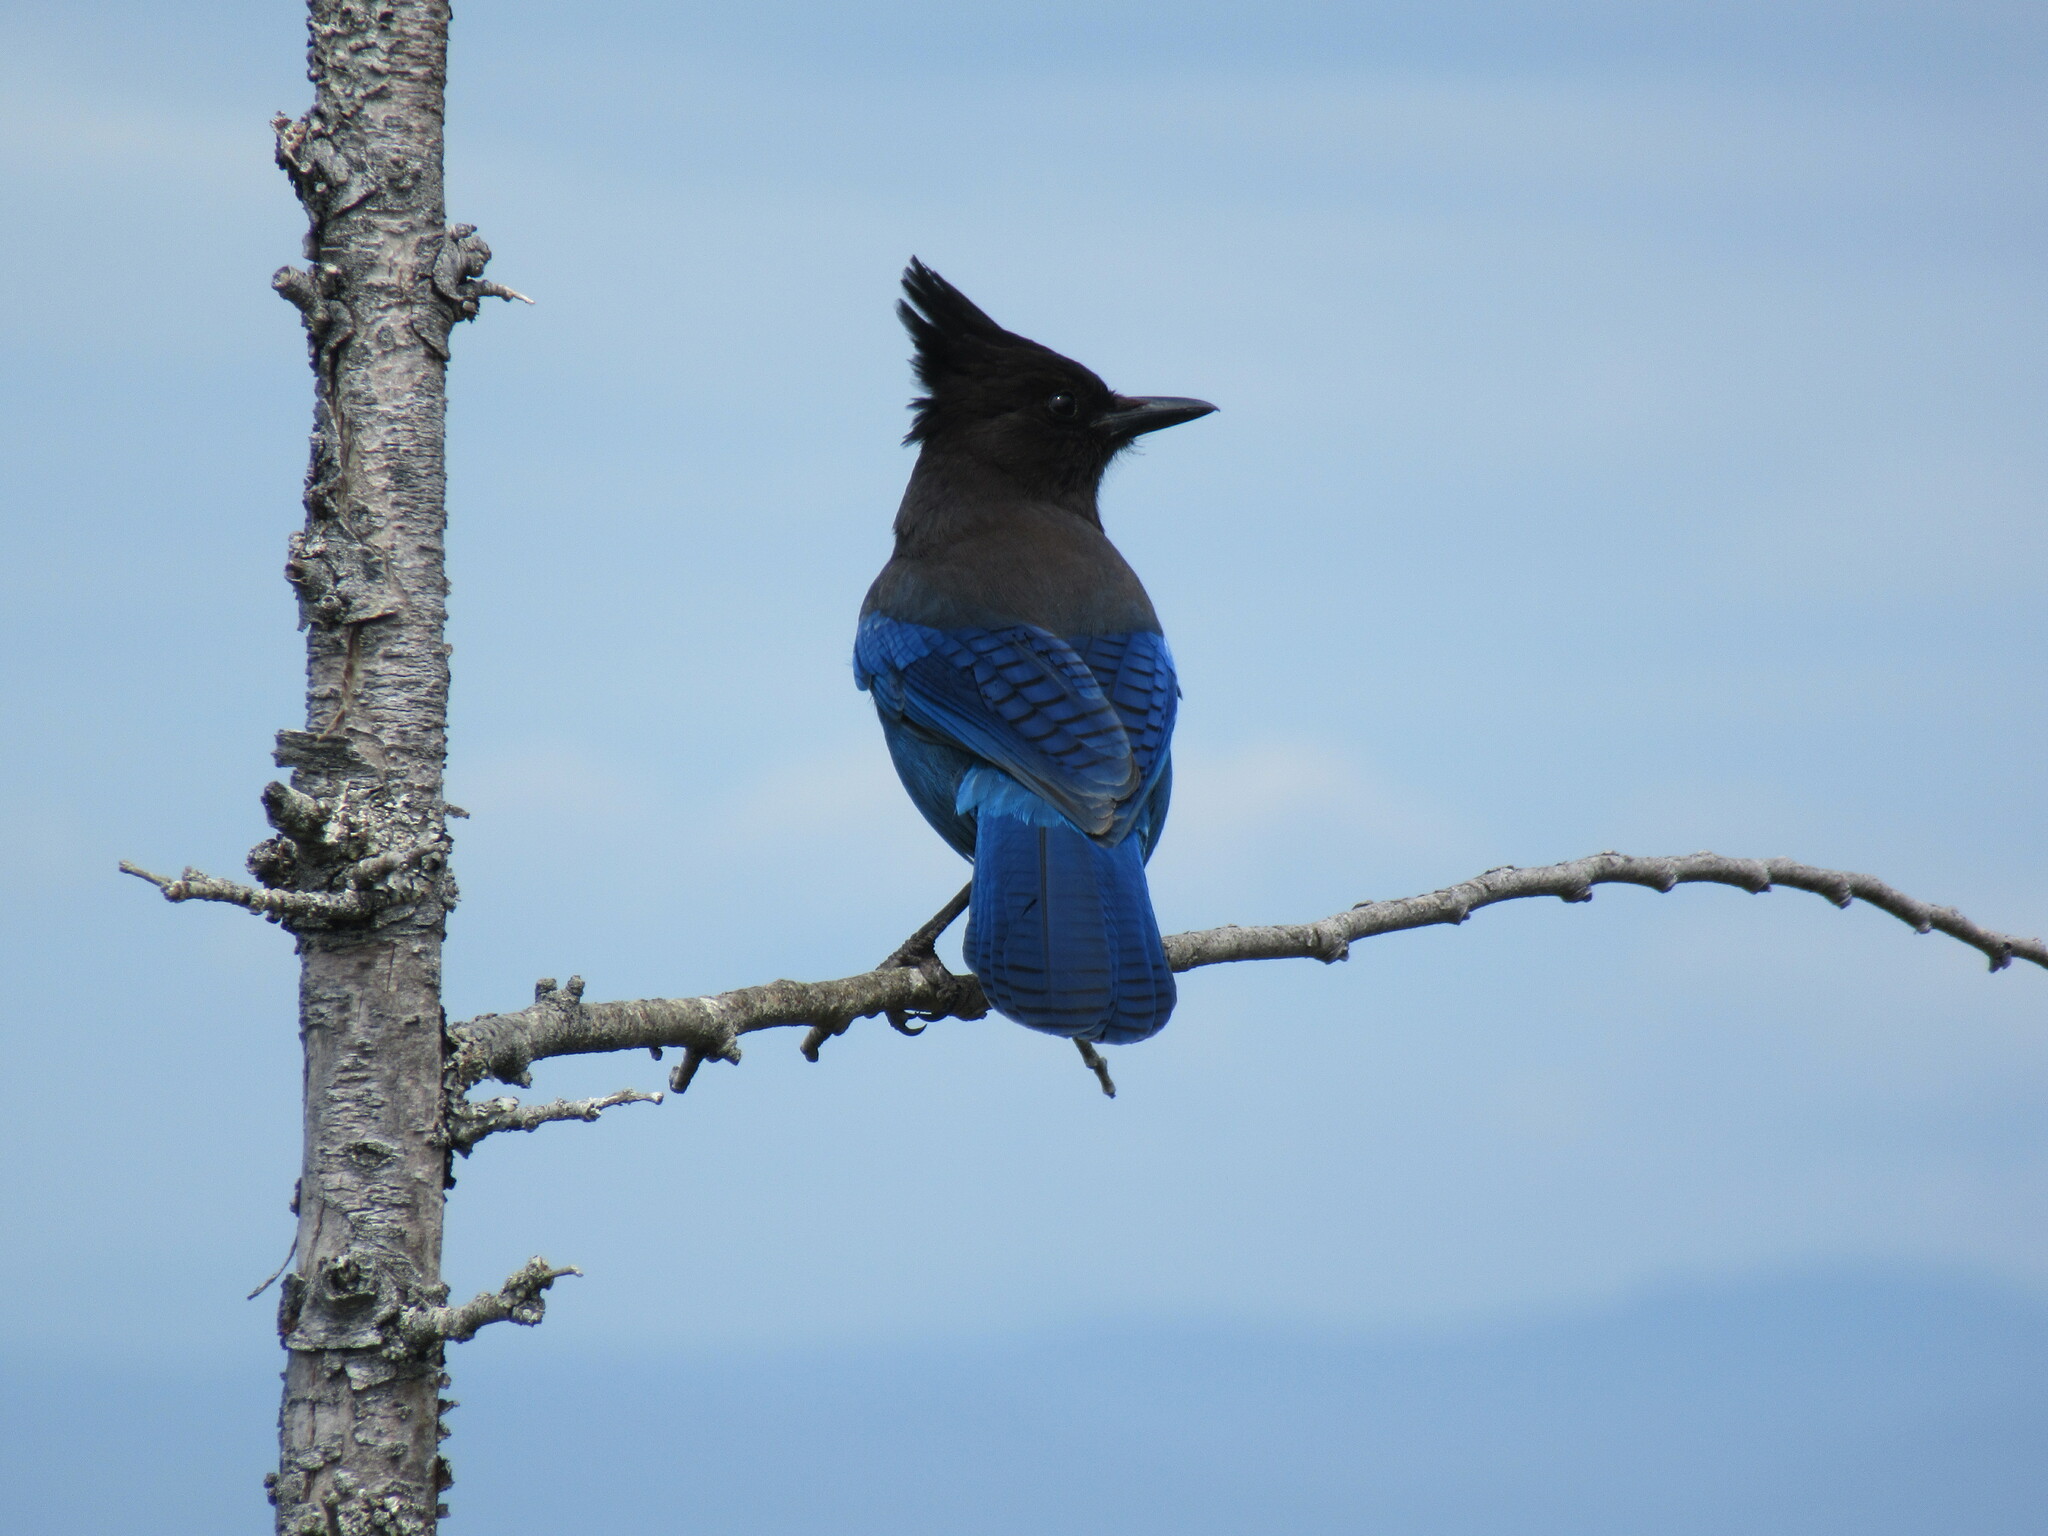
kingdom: Animalia
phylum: Chordata
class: Aves
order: Passeriformes
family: Corvidae
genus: Cyanocitta
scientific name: Cyanocitta stelleri
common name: Steller's jay
